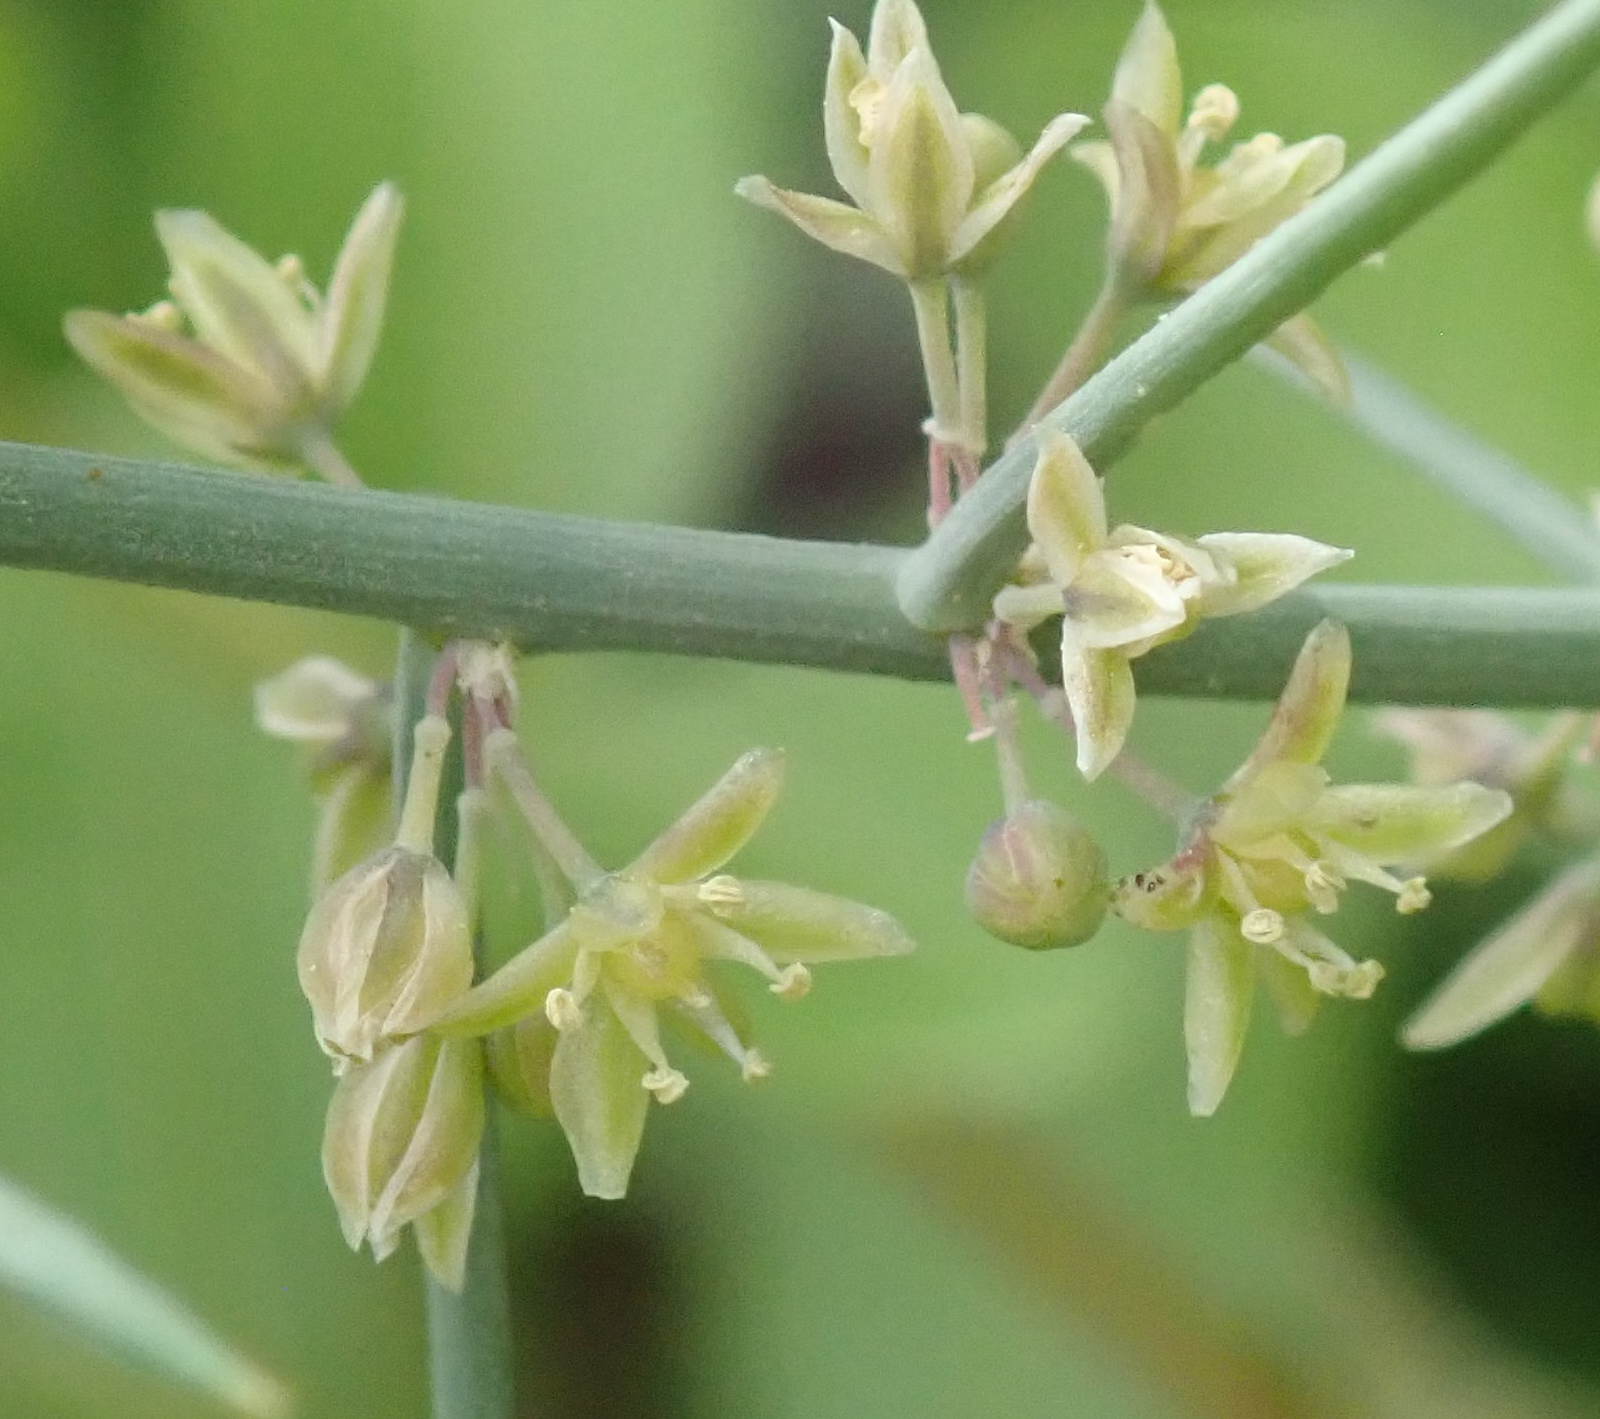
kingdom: Plantae
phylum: Tracheophyta
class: Liliopsida
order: Asparagales
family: Asparagaceae
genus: Asparagus
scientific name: Asparagus horridus
